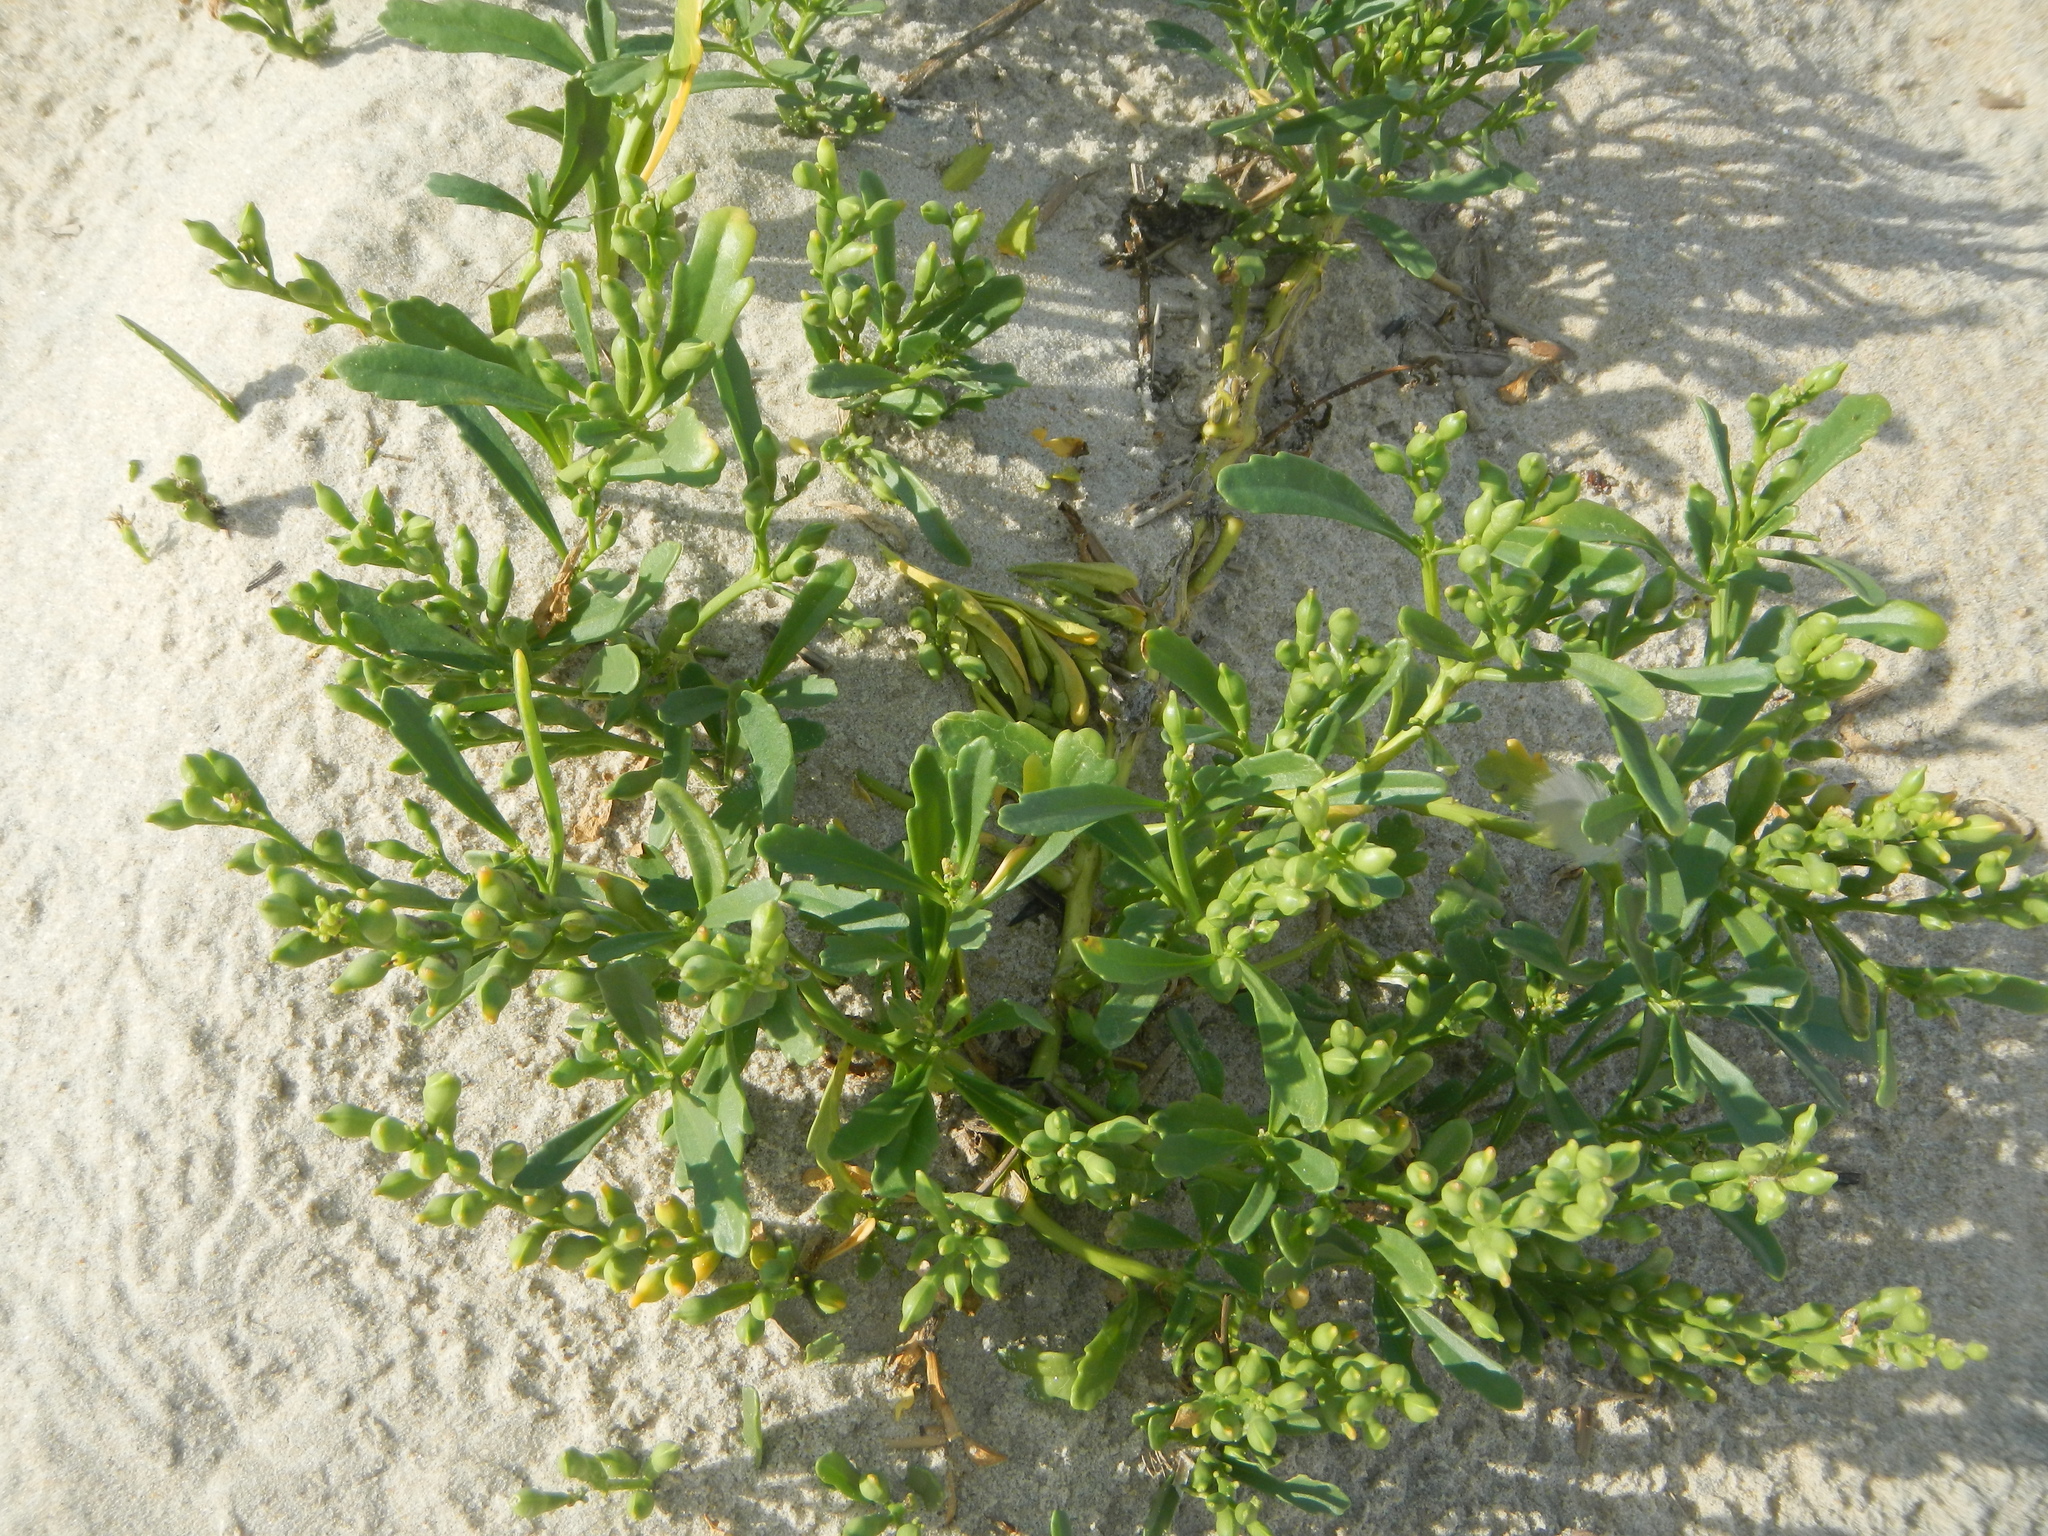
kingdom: Plantae
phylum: Tracheophyta
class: Magnoliopsida
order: Brassicales
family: Brassicaceae
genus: Cakile
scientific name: Cakile edentula
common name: American sea rocket
